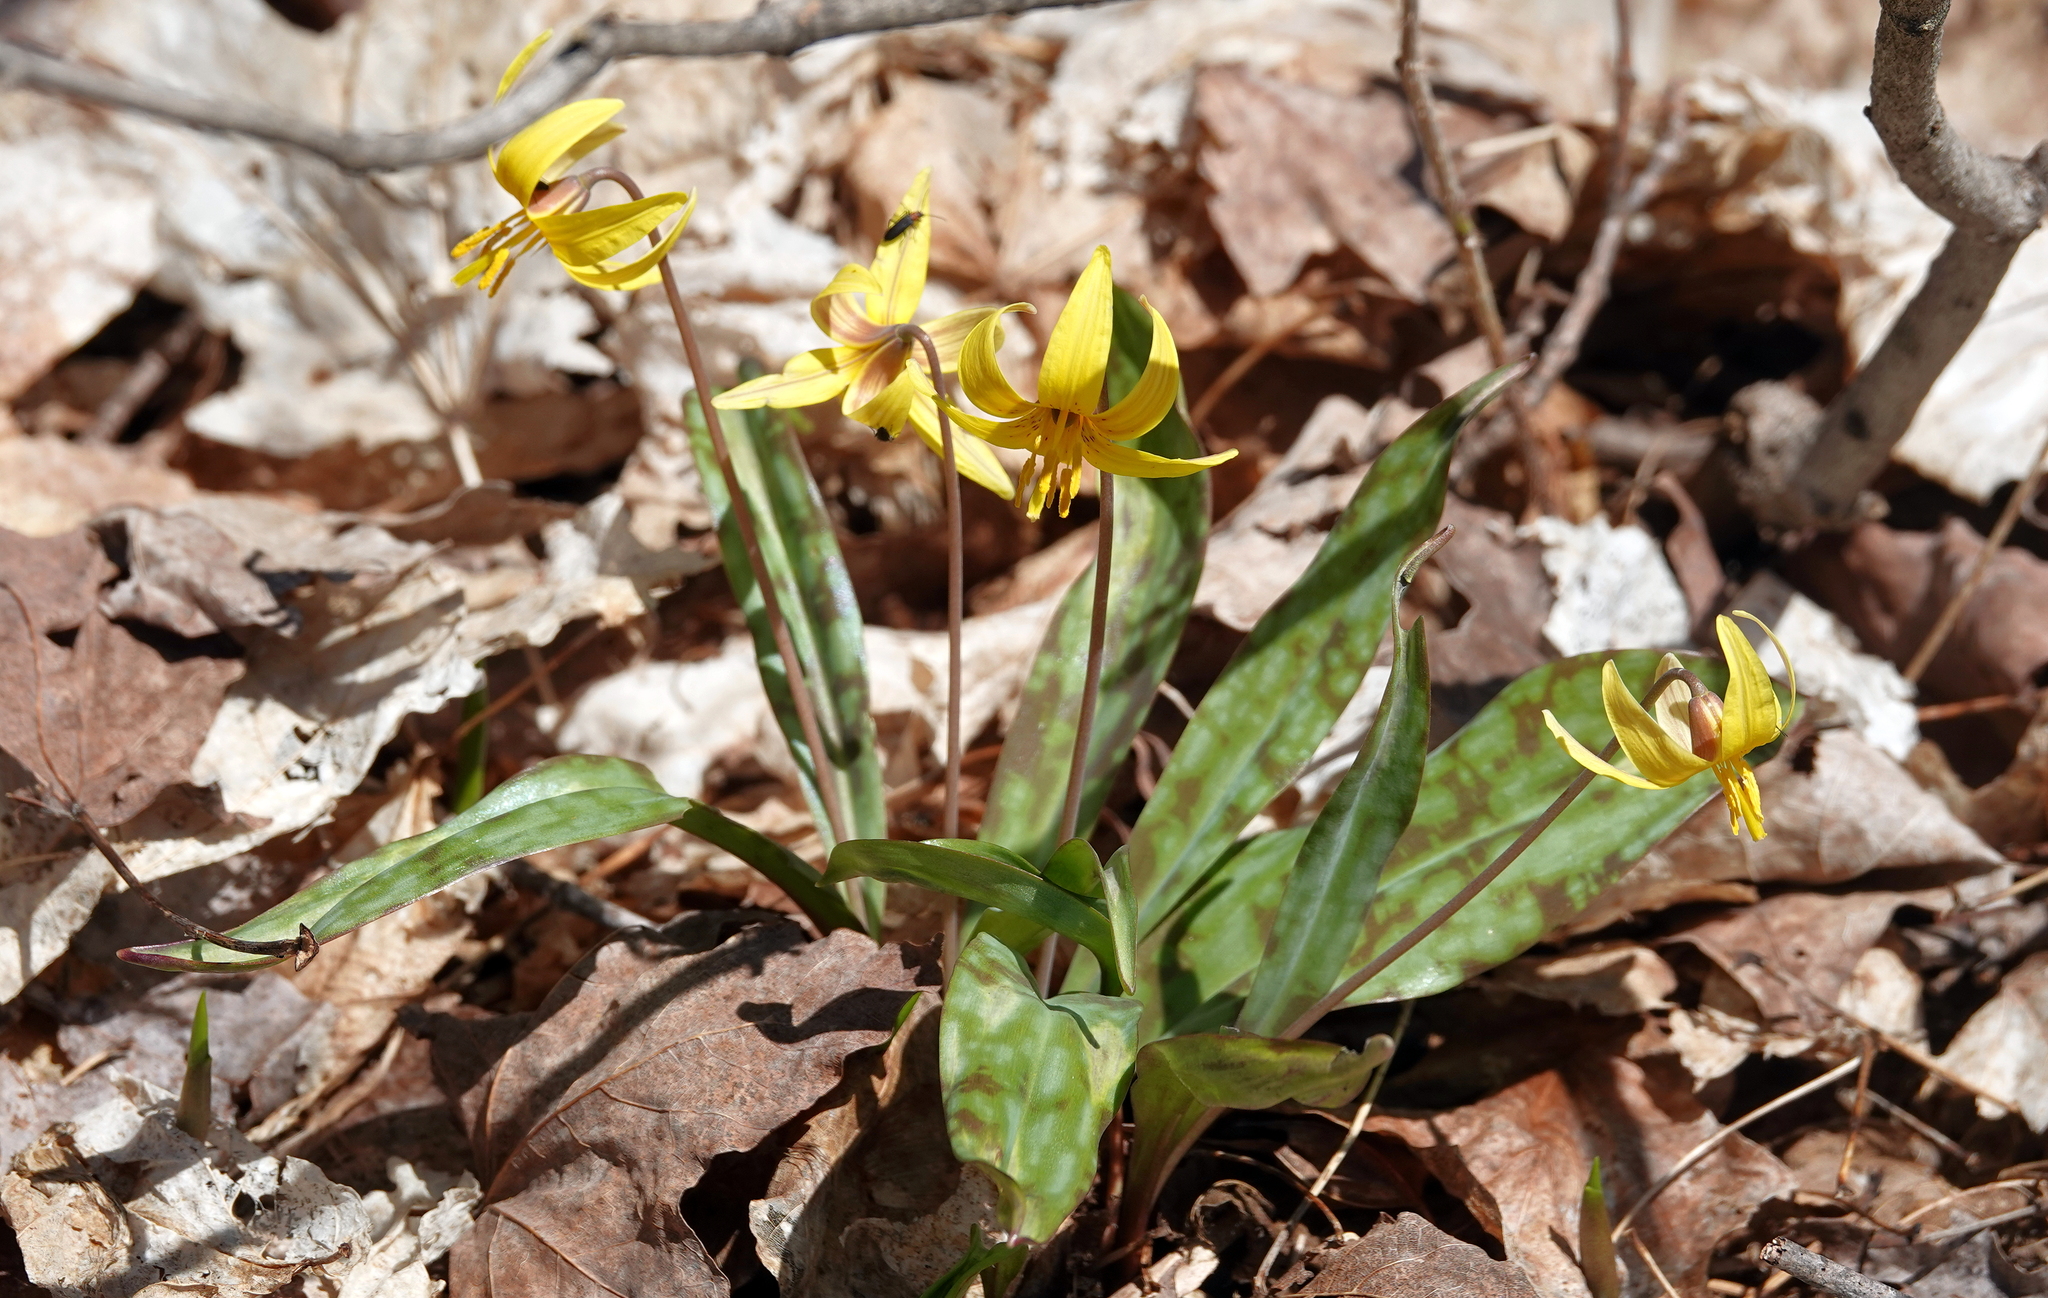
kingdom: Plantae
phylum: Tracheophyta
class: Liliopsida
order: Liliales
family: Liliaceae
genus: Erythronium
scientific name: Erythronium americanum
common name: Yellow adder's-tongue
